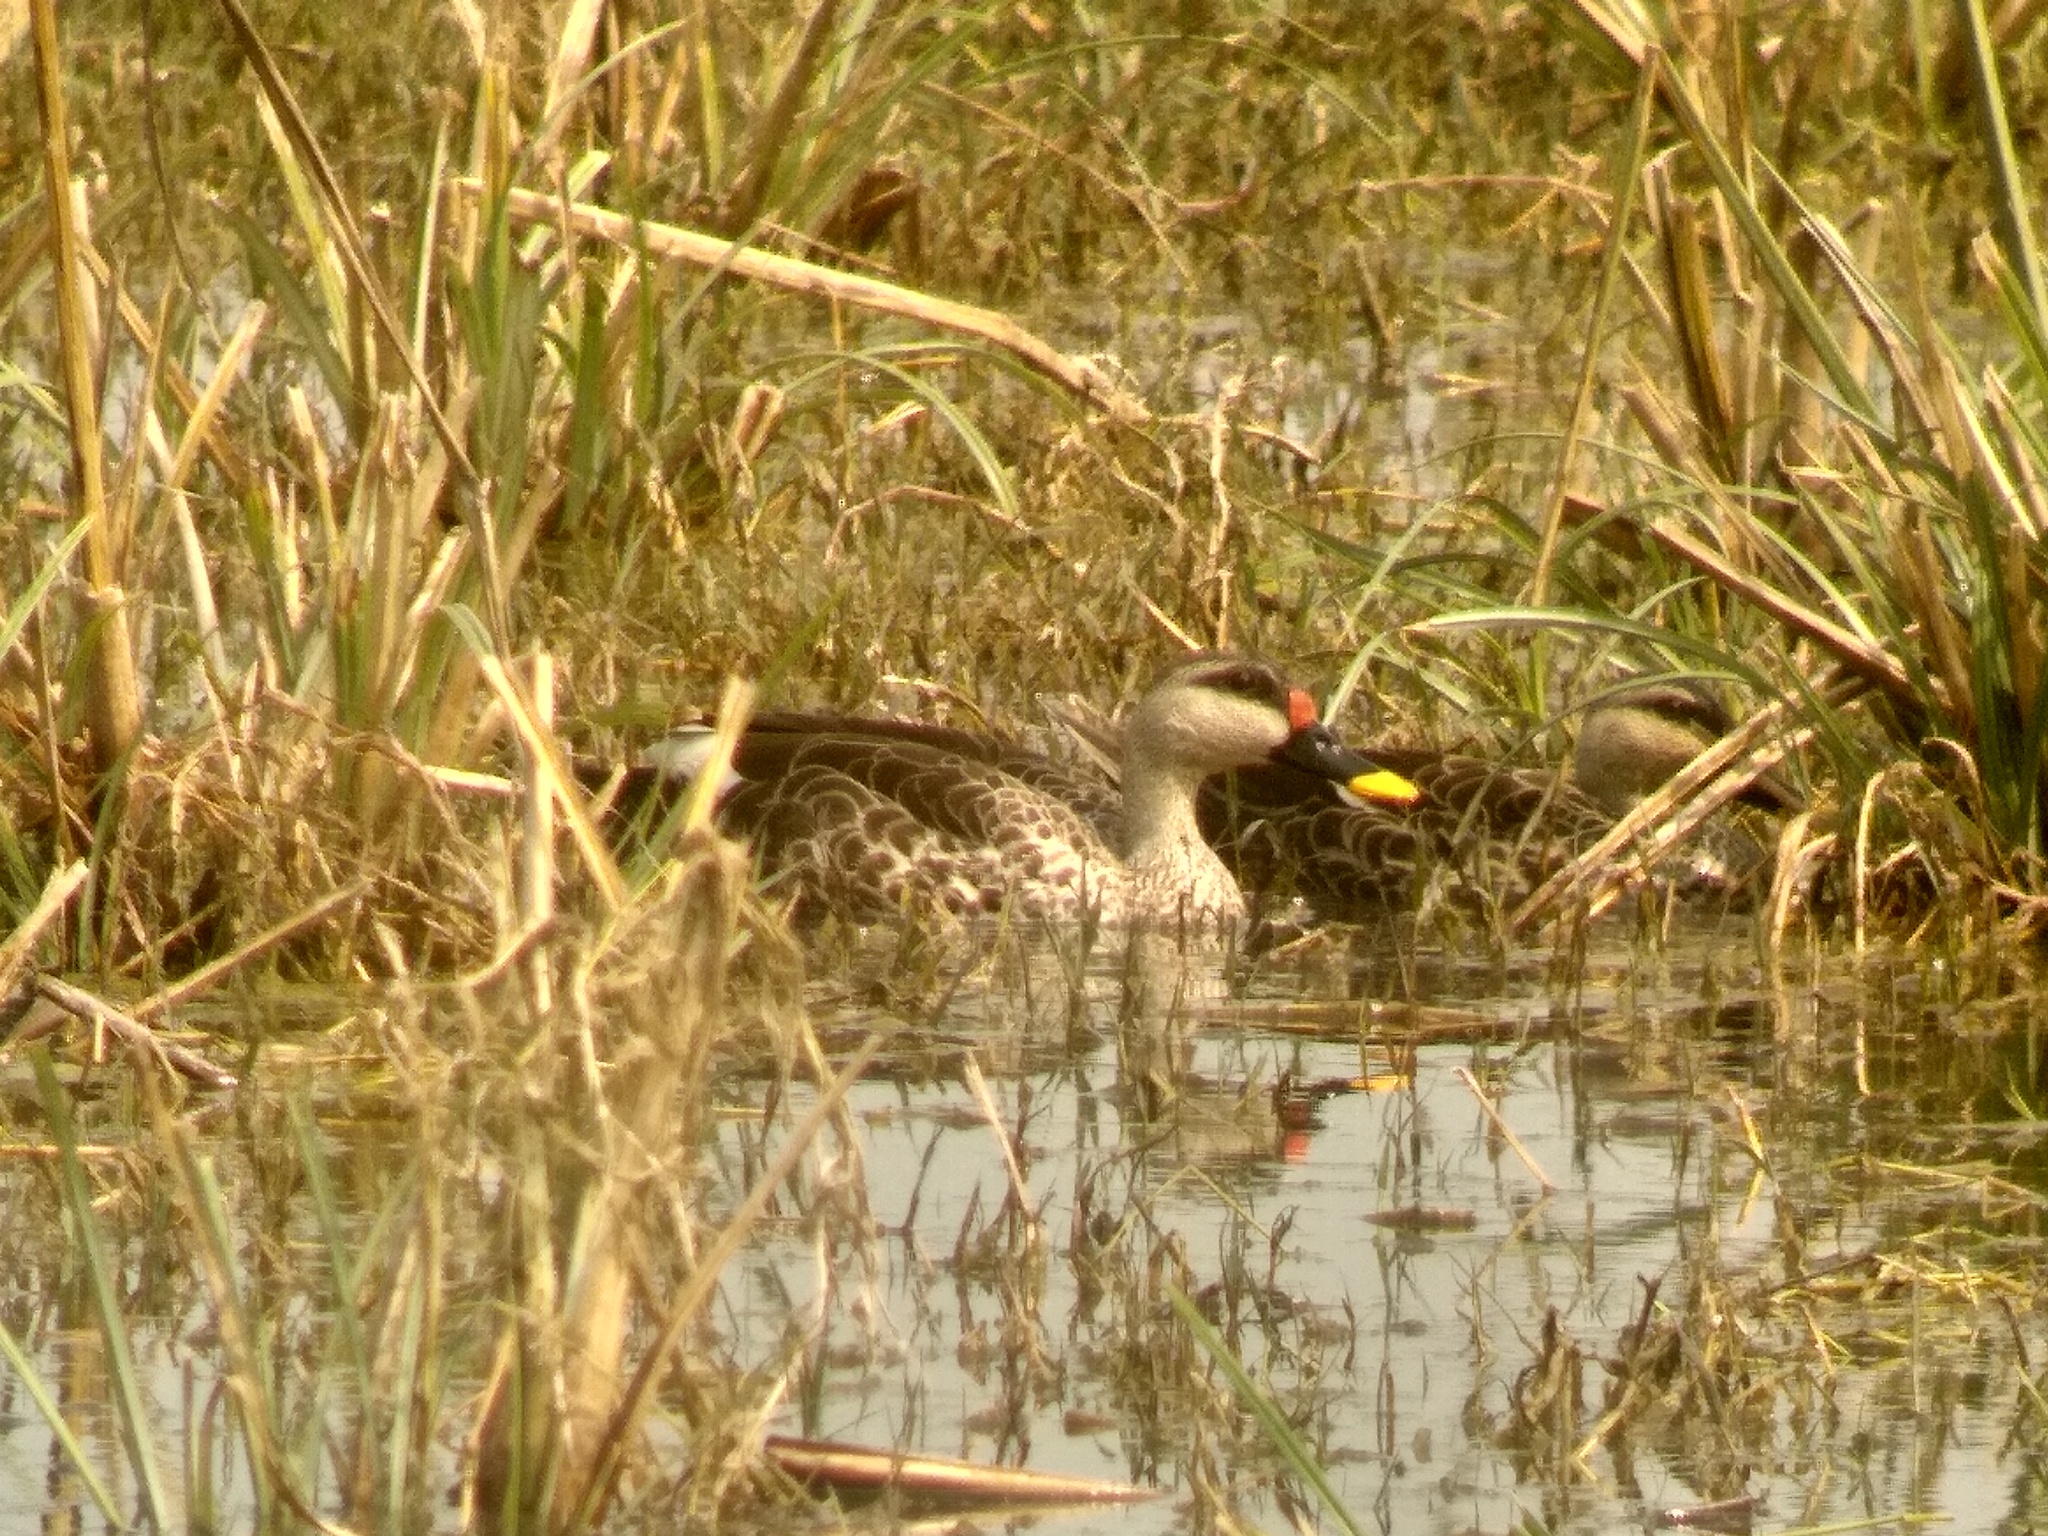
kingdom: Animalia
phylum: Chordata
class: Aves
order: Anseriformes
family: Anatidae
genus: Anas
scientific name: Anas poecilorhyncha
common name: Indian spot-billed duck
